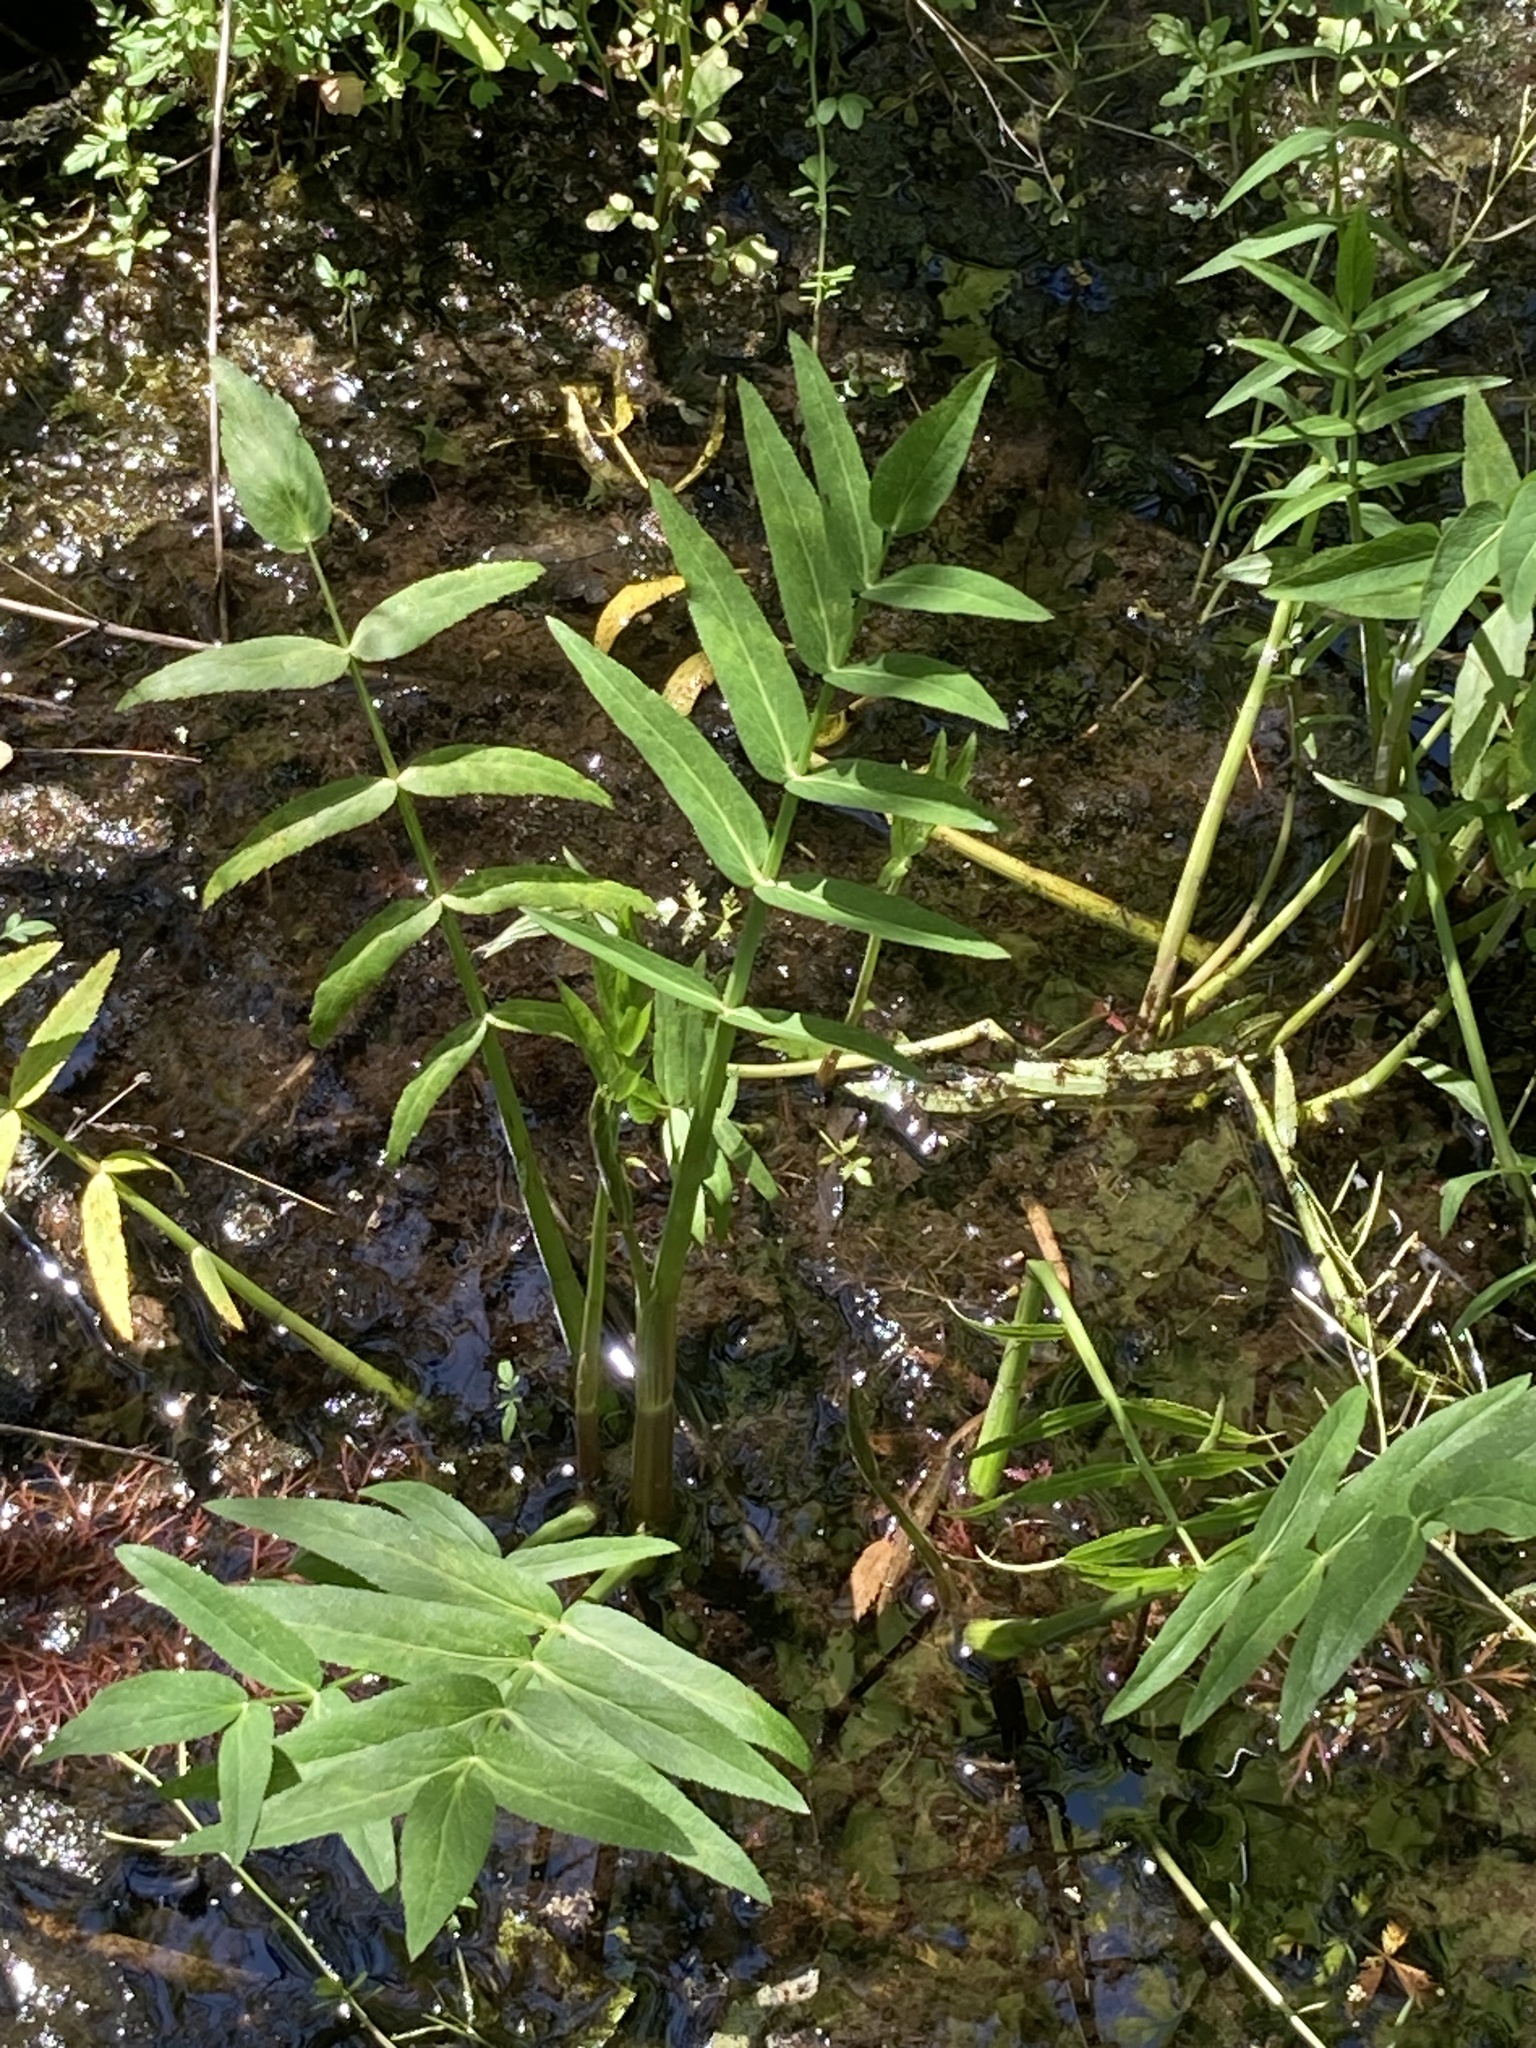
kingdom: Plantae
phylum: Tracheophyta
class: Magnoliopsida
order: Apiales
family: Apiaceae
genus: Sium
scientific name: Sium suave
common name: Hemlock water-parsnip
